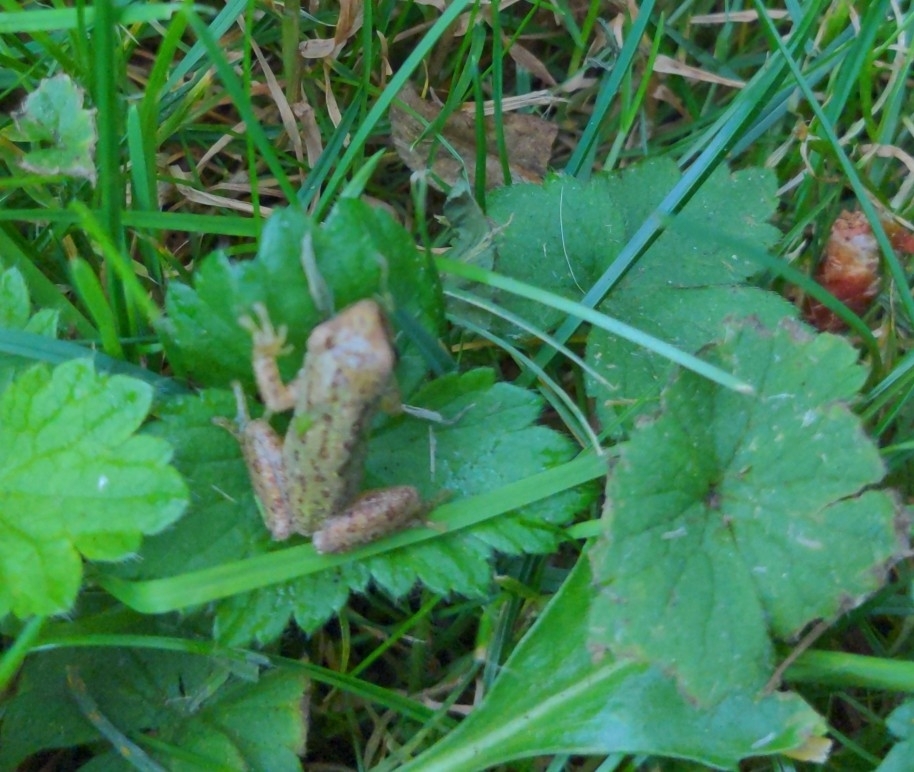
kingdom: Animalia
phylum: Chordata
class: Amphibia
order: Anura
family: Hylidae
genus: Pseudacris
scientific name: Pseudacris regilla
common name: Pacific chorus frog
